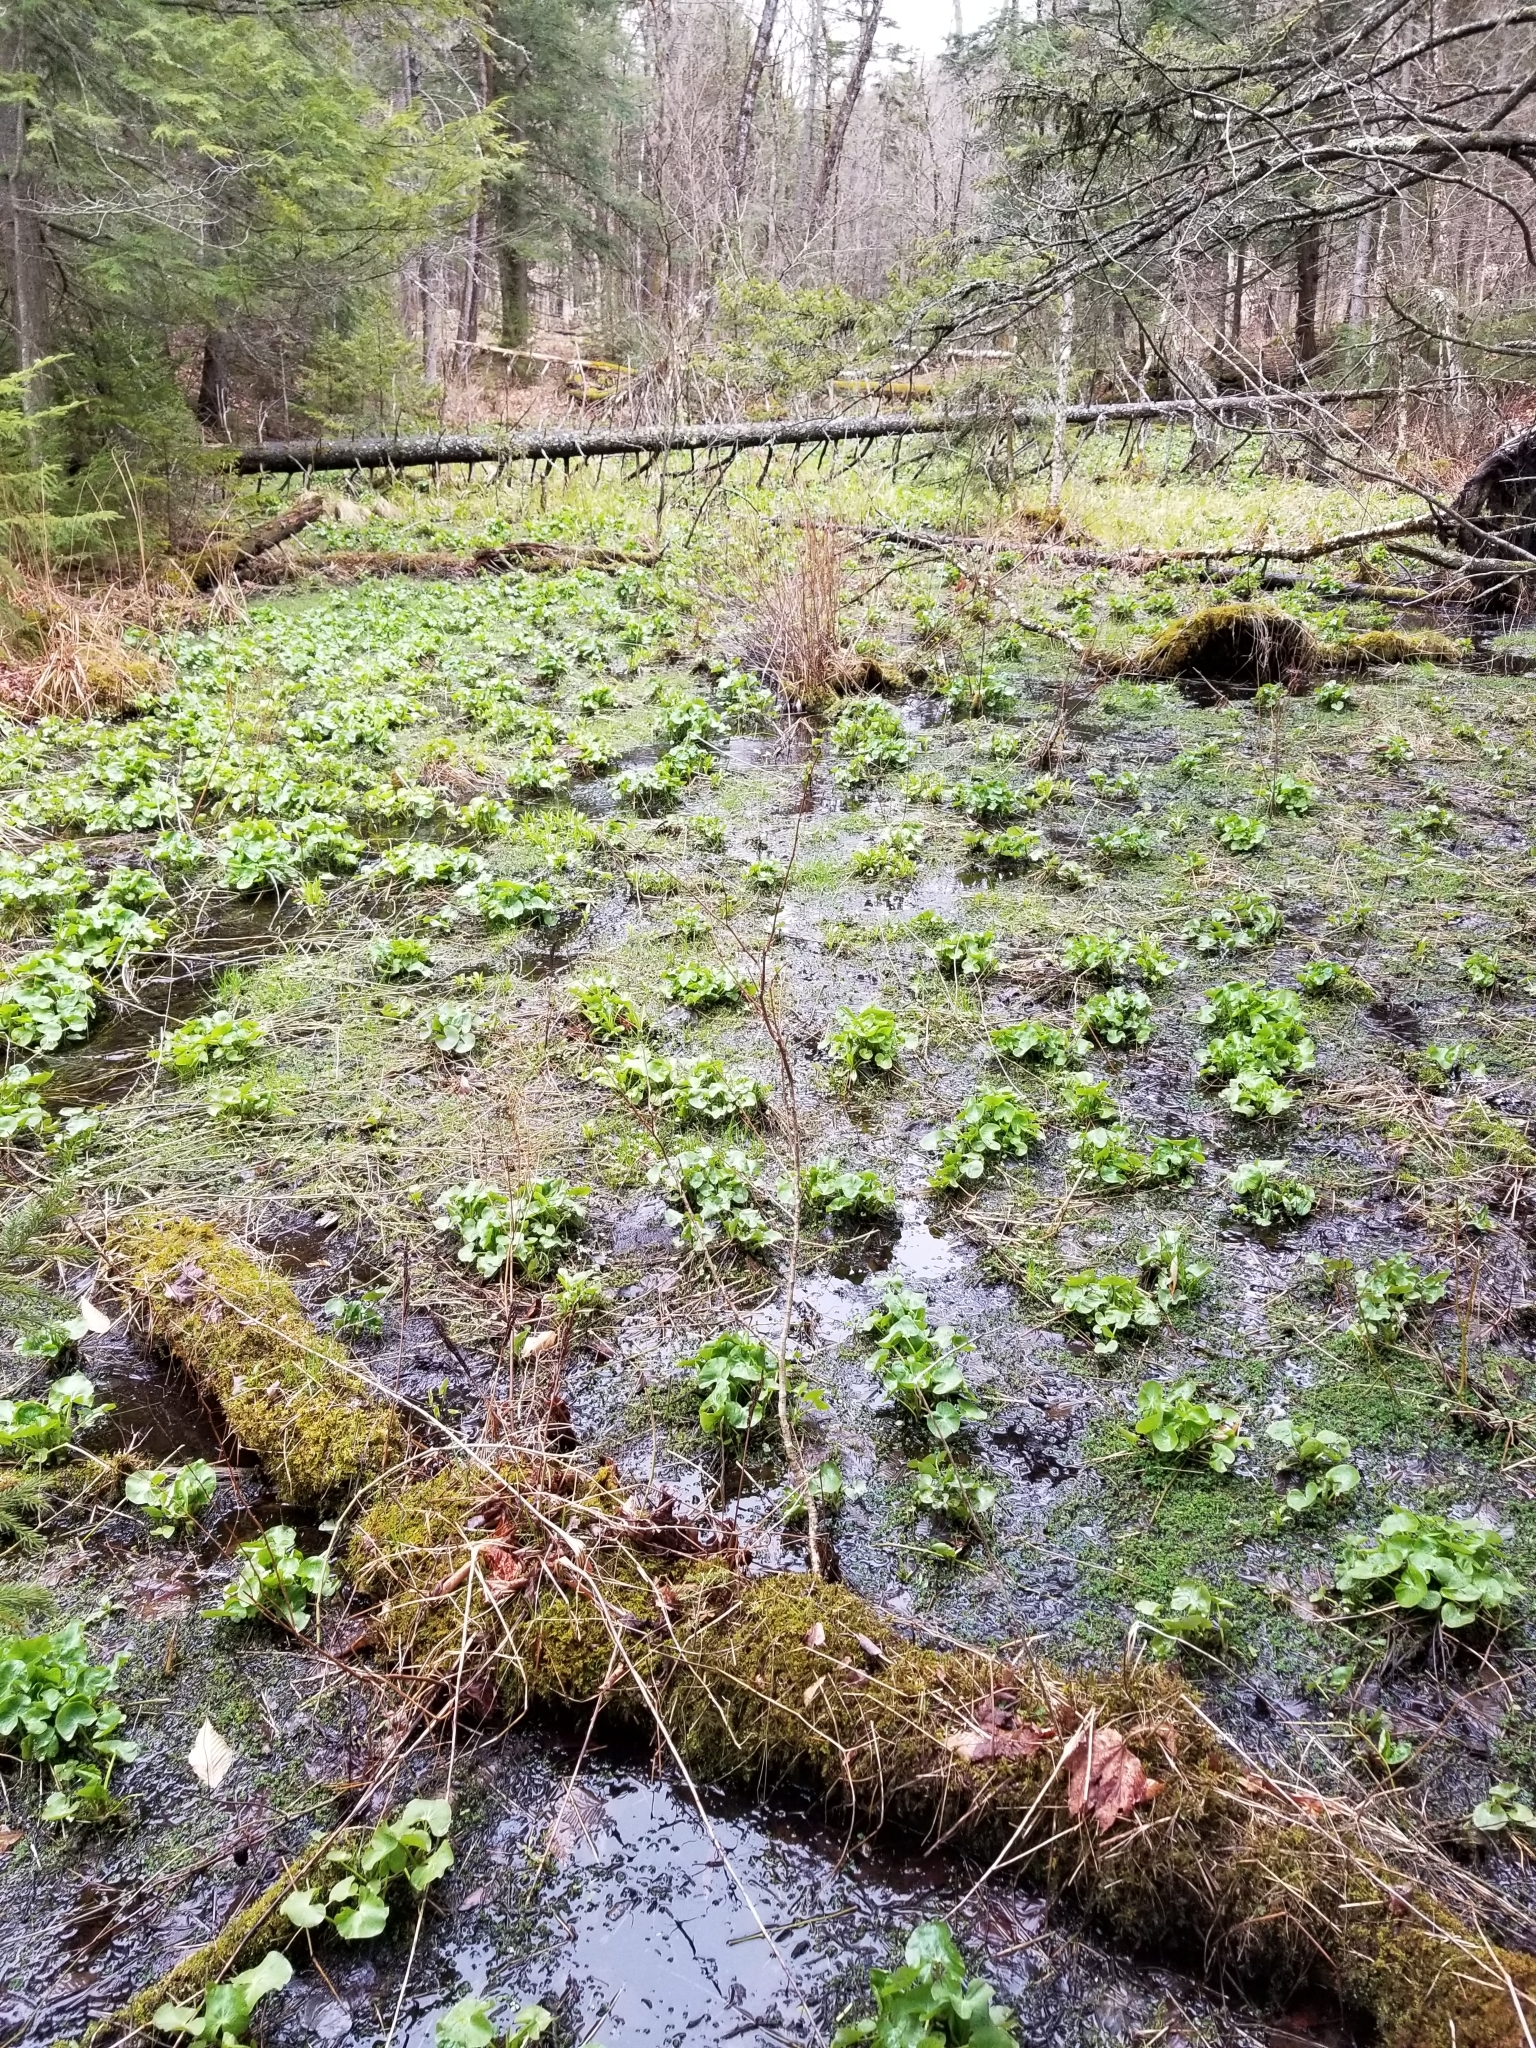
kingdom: Plantae
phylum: Tracheophyta
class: Magnoliopsida
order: Ranunculales
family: Ranunculaceae
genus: Caltha
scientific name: Caltha palustris
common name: Marsh marigold
